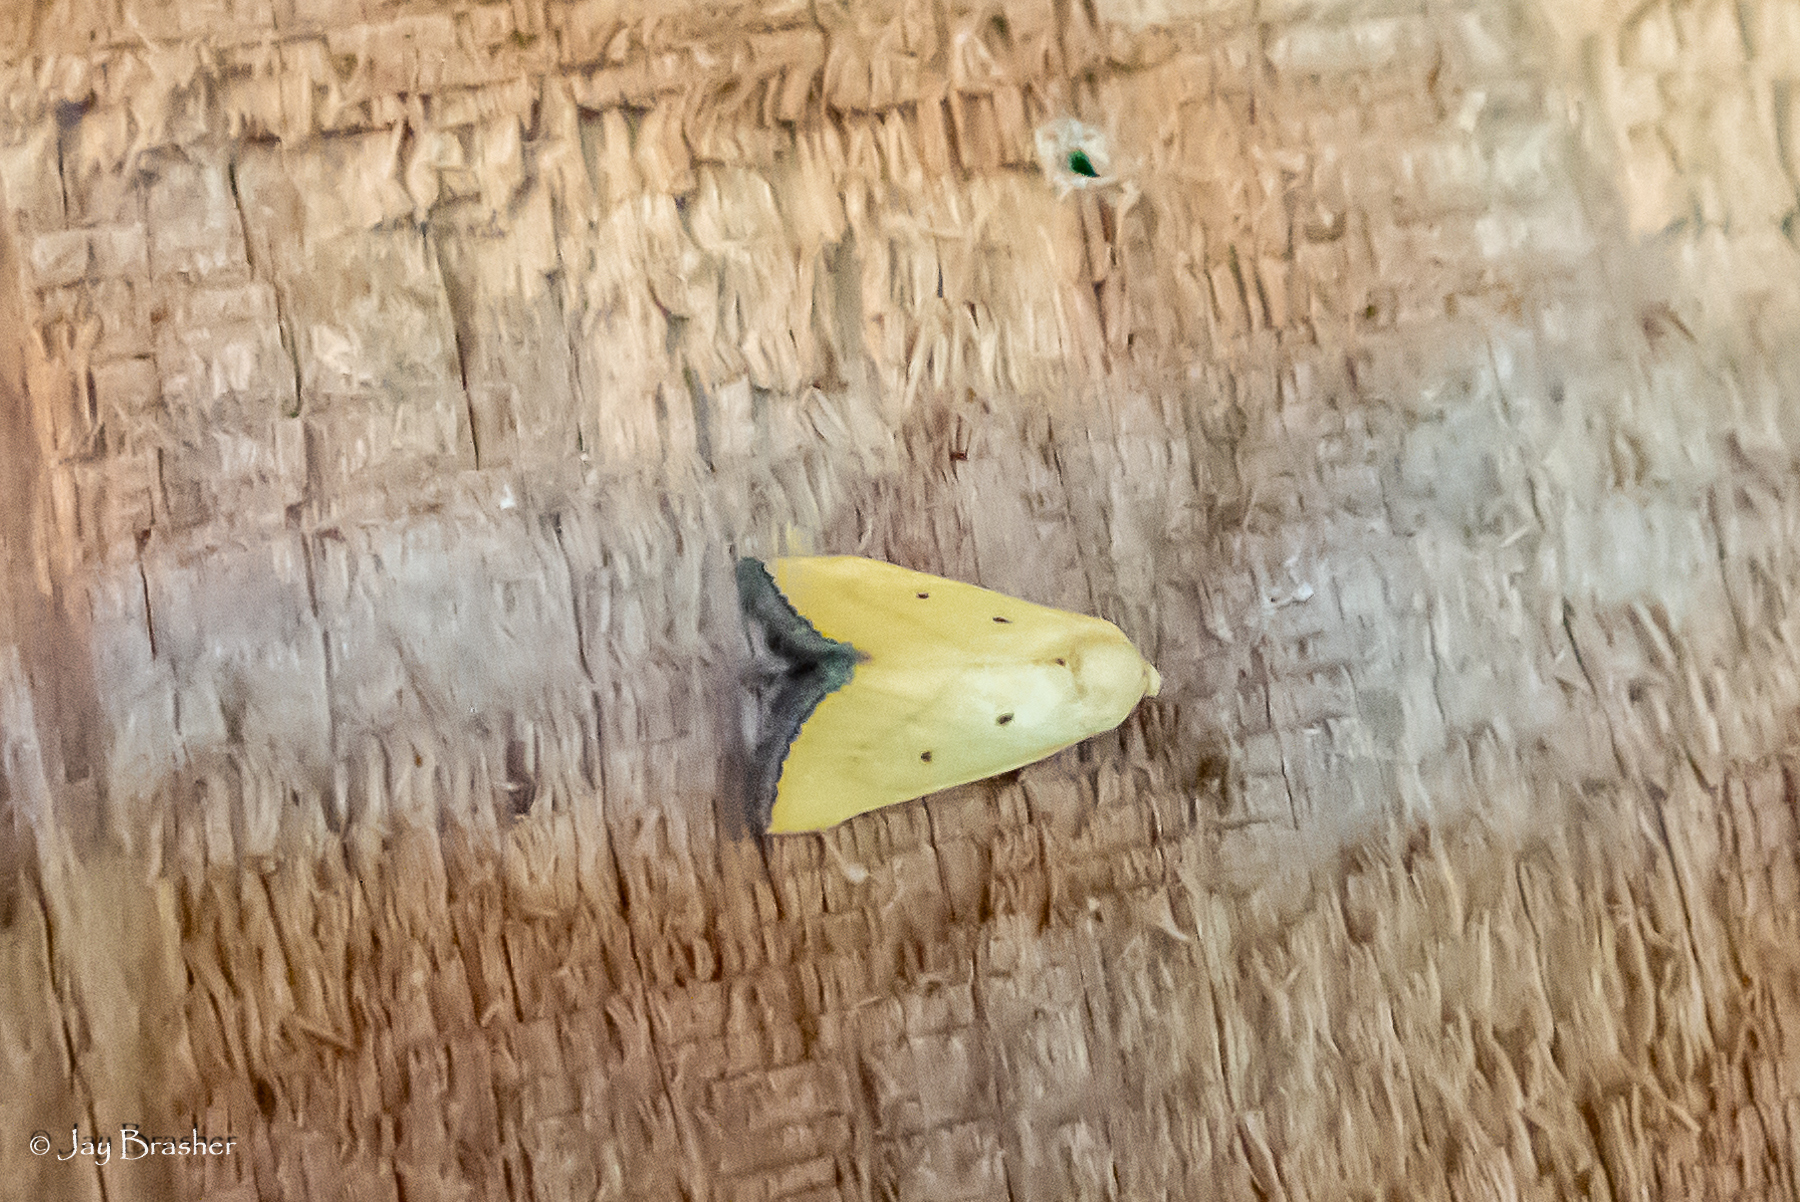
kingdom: Animalia
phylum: Arthropoda
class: Insecta
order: Lepidoptera
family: Noctuidae
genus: Marimatha
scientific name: Marimatha nigrofimbria
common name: Black-bordered lemon moth
